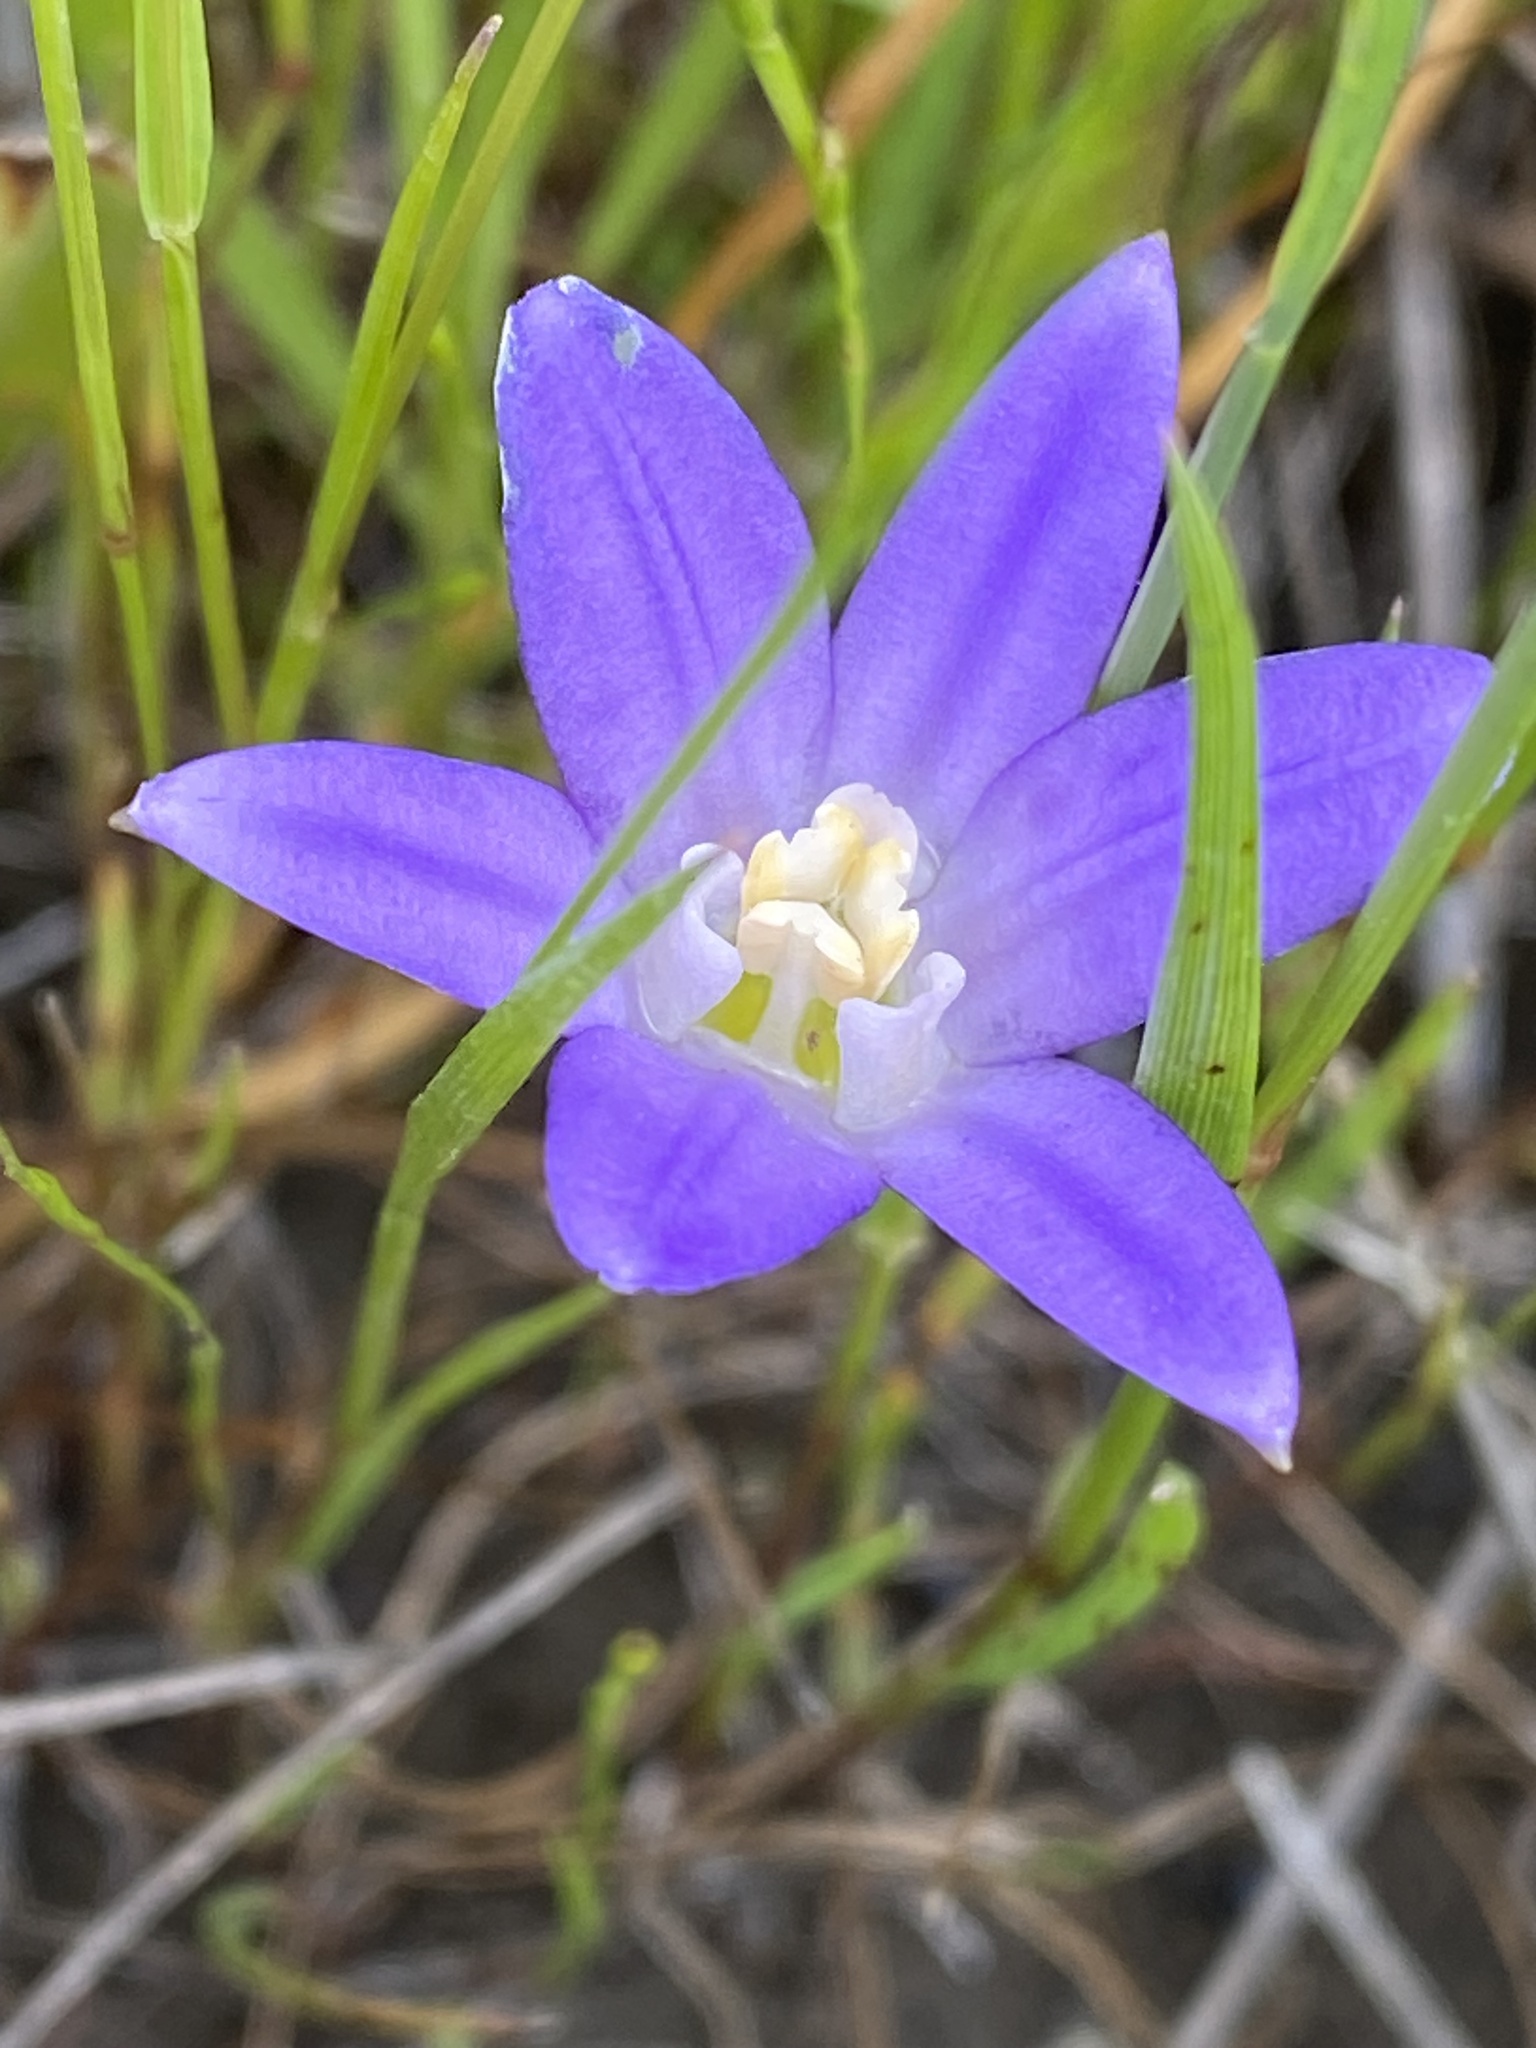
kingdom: Plantae
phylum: Tracheophyta
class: Liliopsida
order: Asparagales
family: Asparagaceae
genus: Brodiaea
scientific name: Brodiaea terrestris
